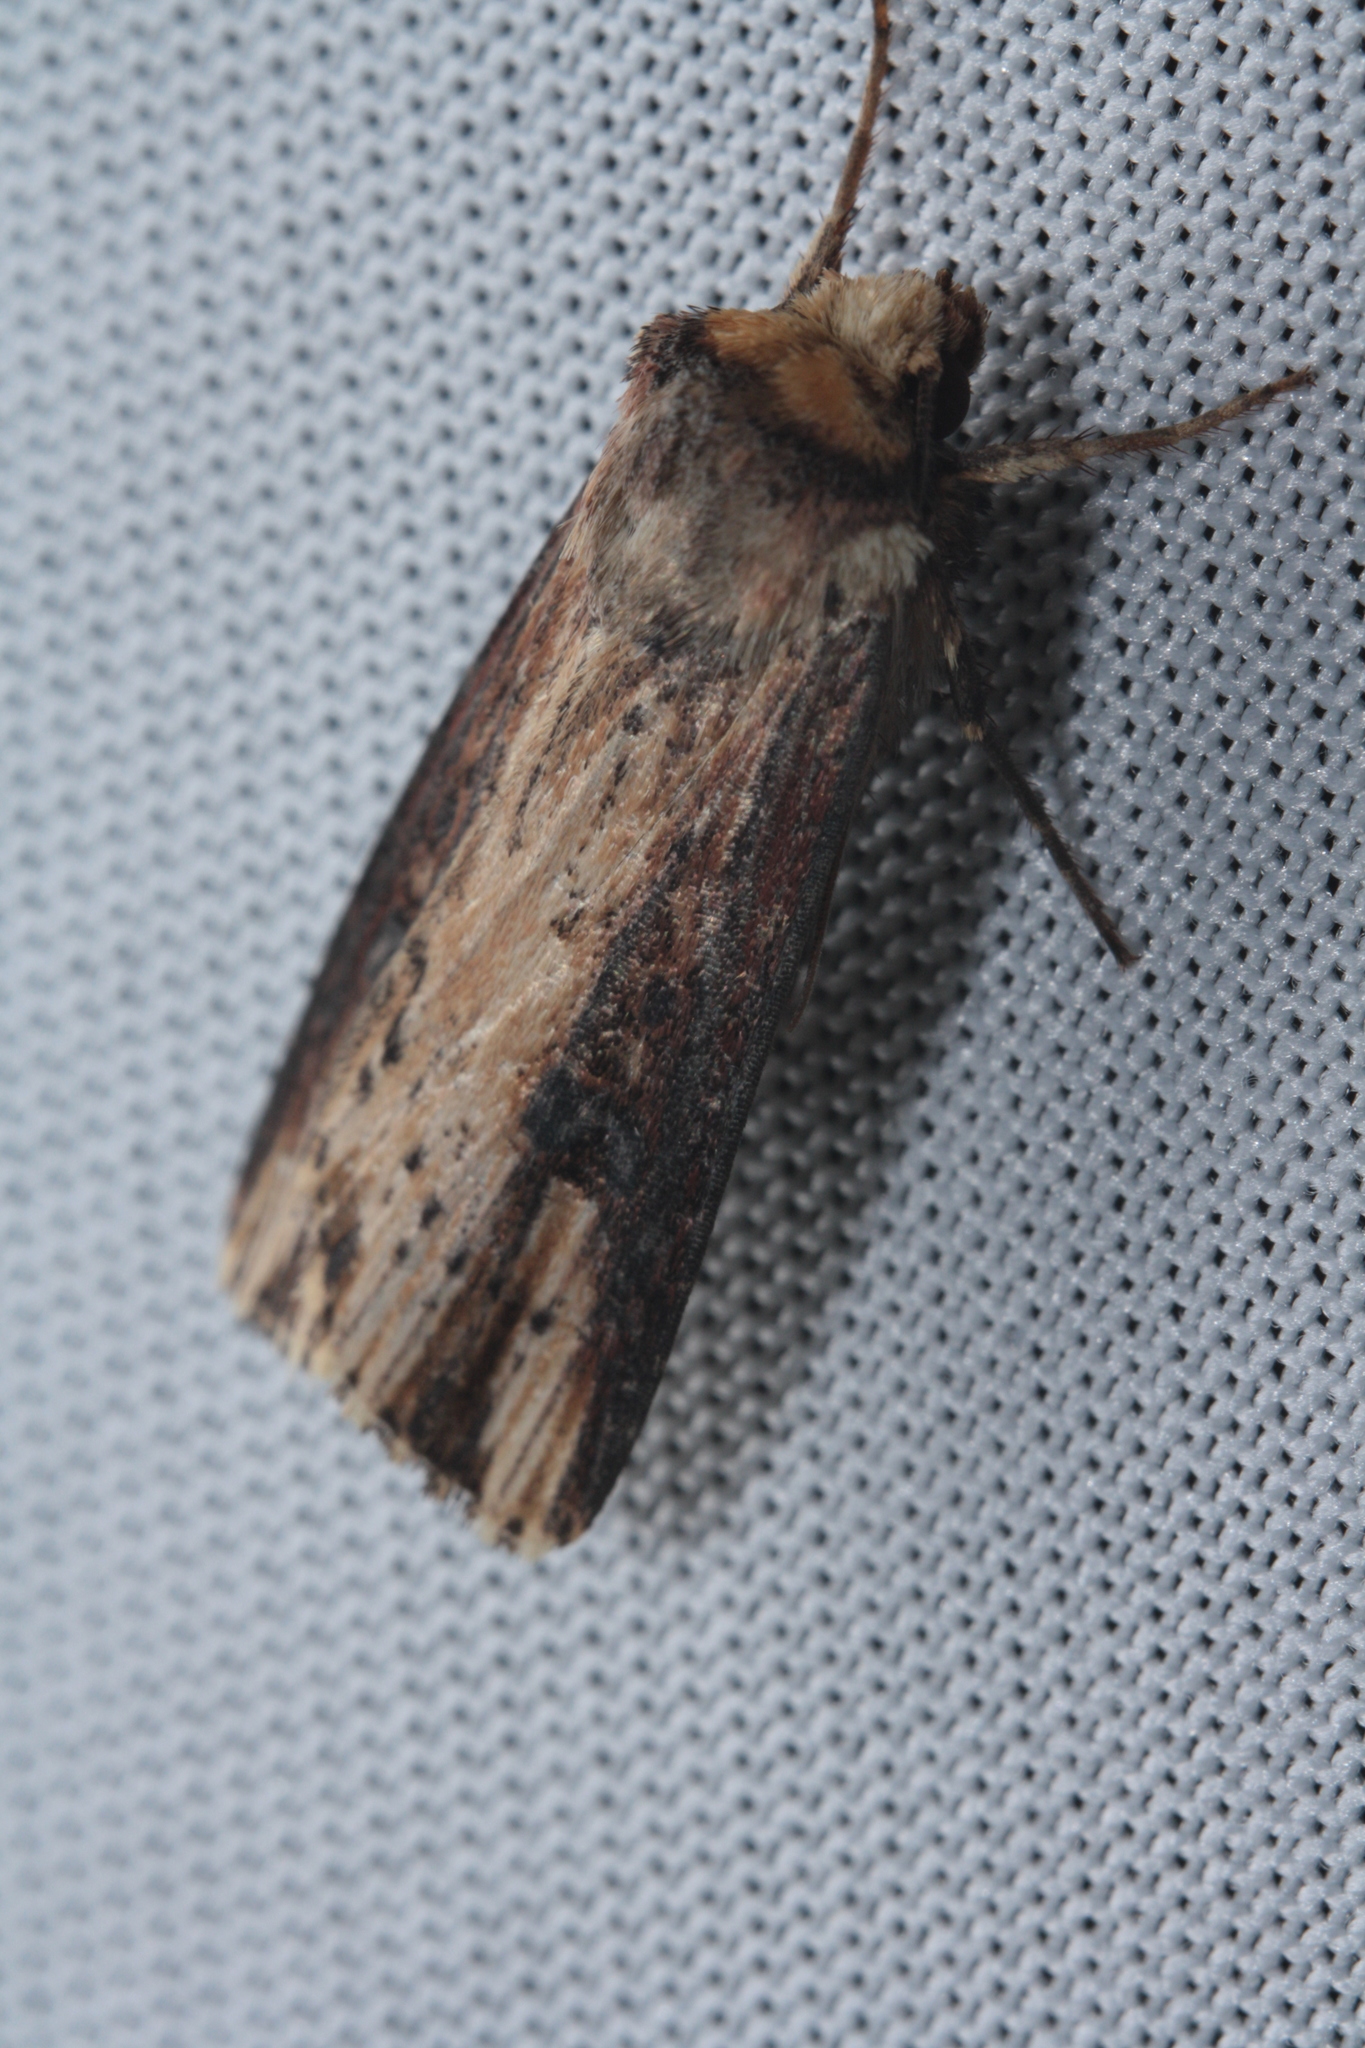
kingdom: Animalia
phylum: Arthropoda
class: Insecta
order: Lepidoptera
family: Noctuidae
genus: Axylia
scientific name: Axylia putris
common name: Flame
